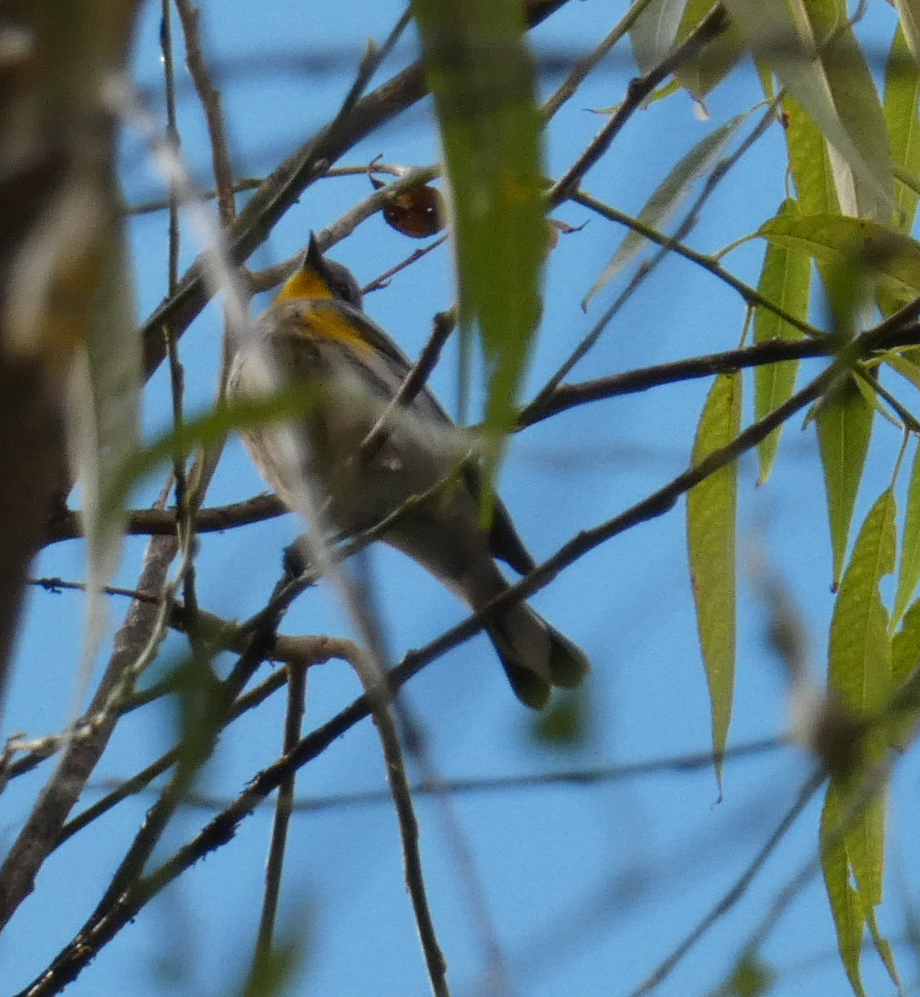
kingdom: Animalia
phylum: Chordata
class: Aves
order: Passeriformes
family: Parulidae
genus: Setophaga
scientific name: Setophaga coronata
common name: Myrtle warbler
